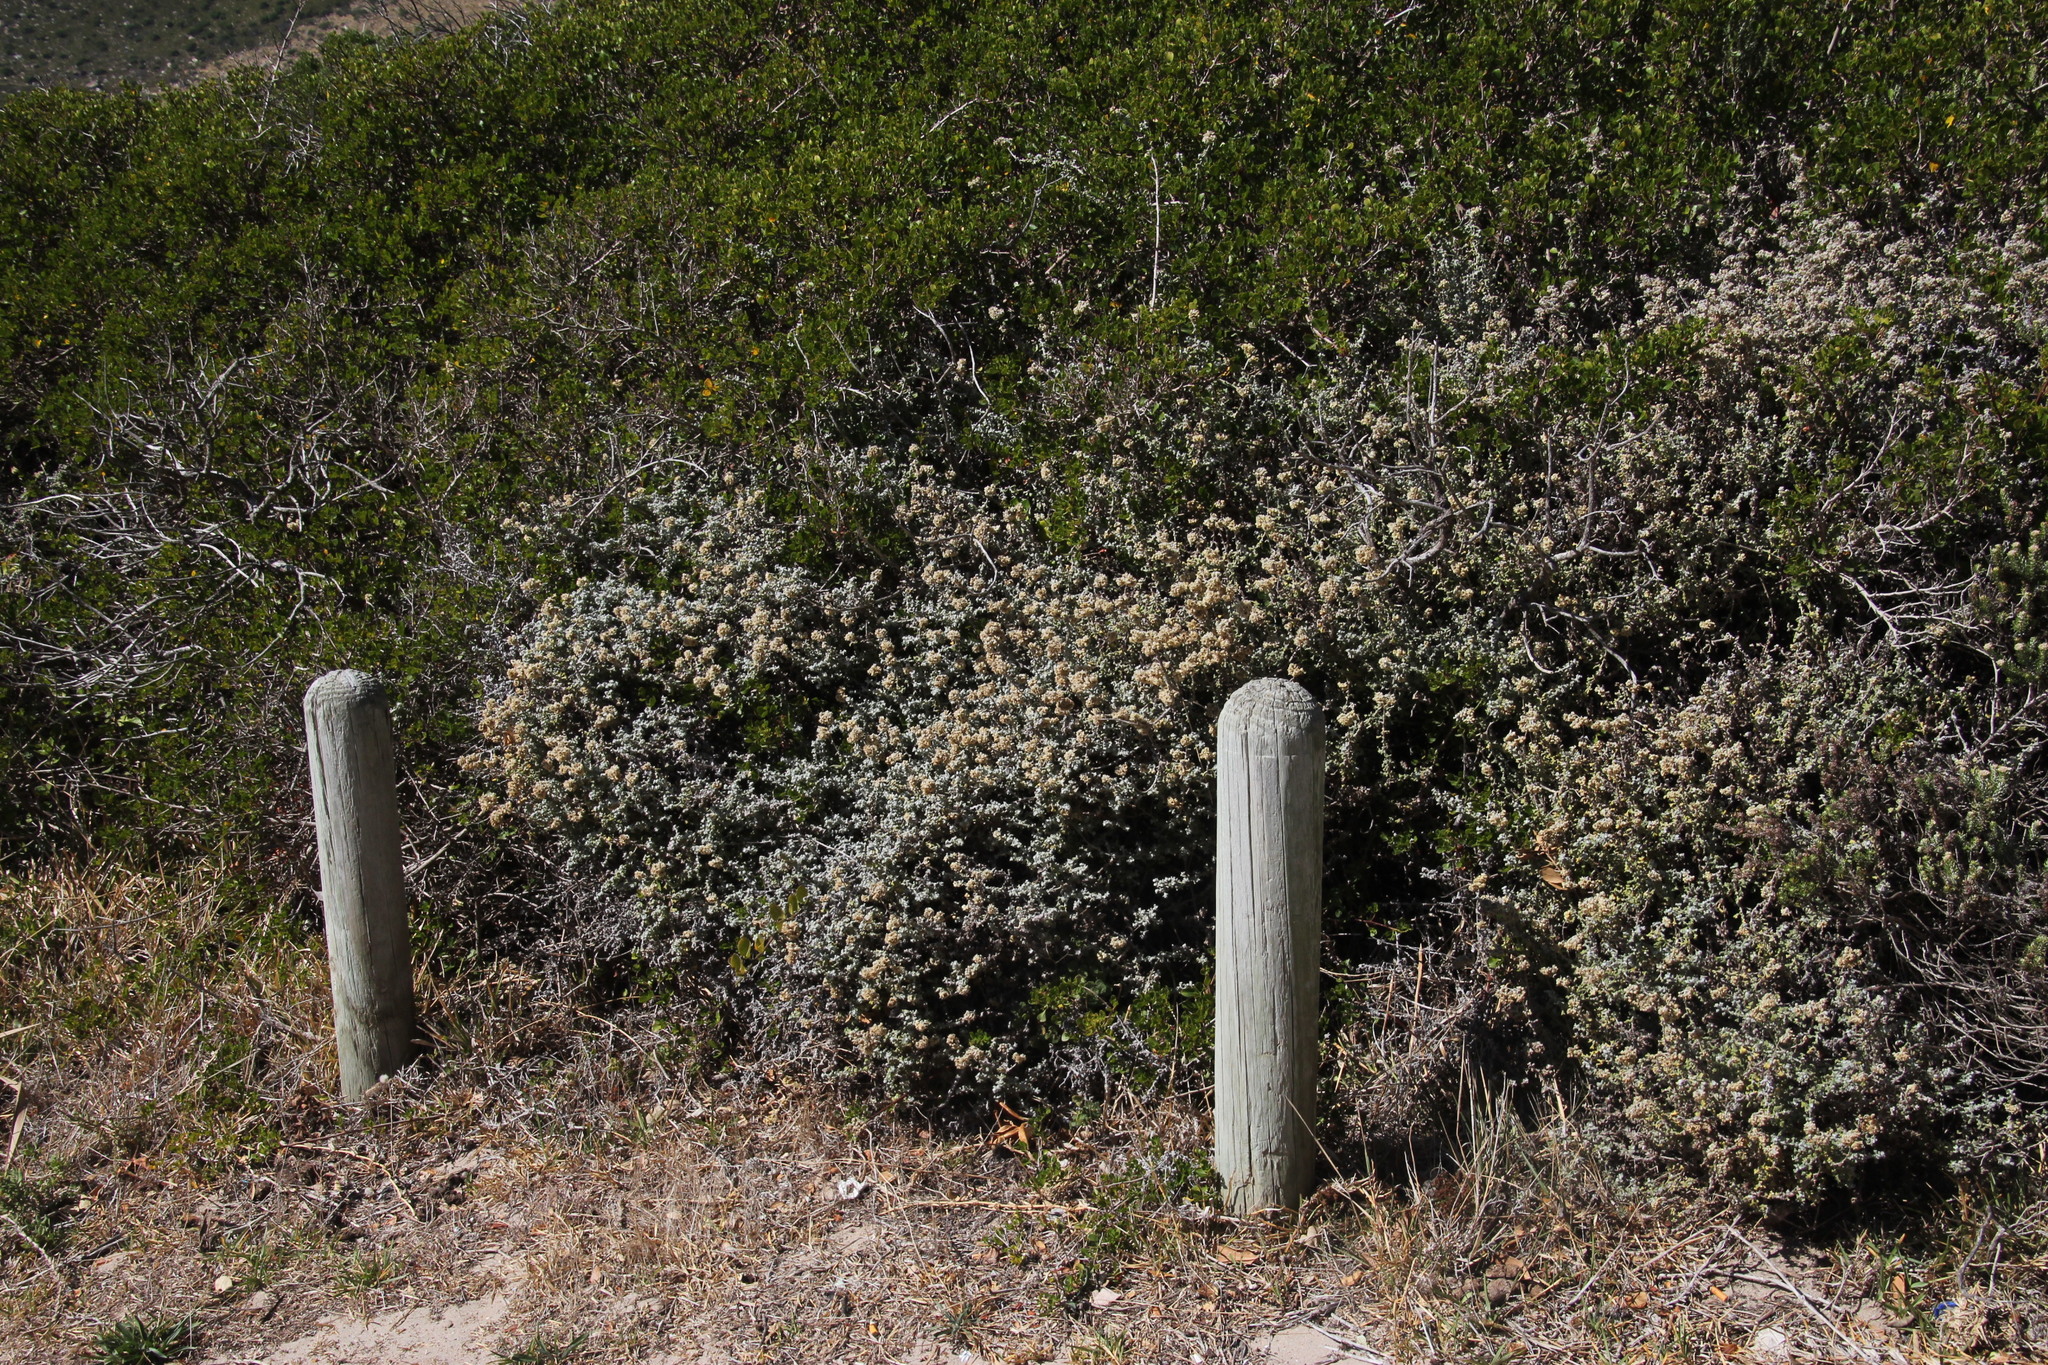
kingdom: Plantae
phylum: Tracheophyta
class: Magnoliopsida
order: Asterales
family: Asteraceae
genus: Helichrysum
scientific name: Helichrysum patulum
